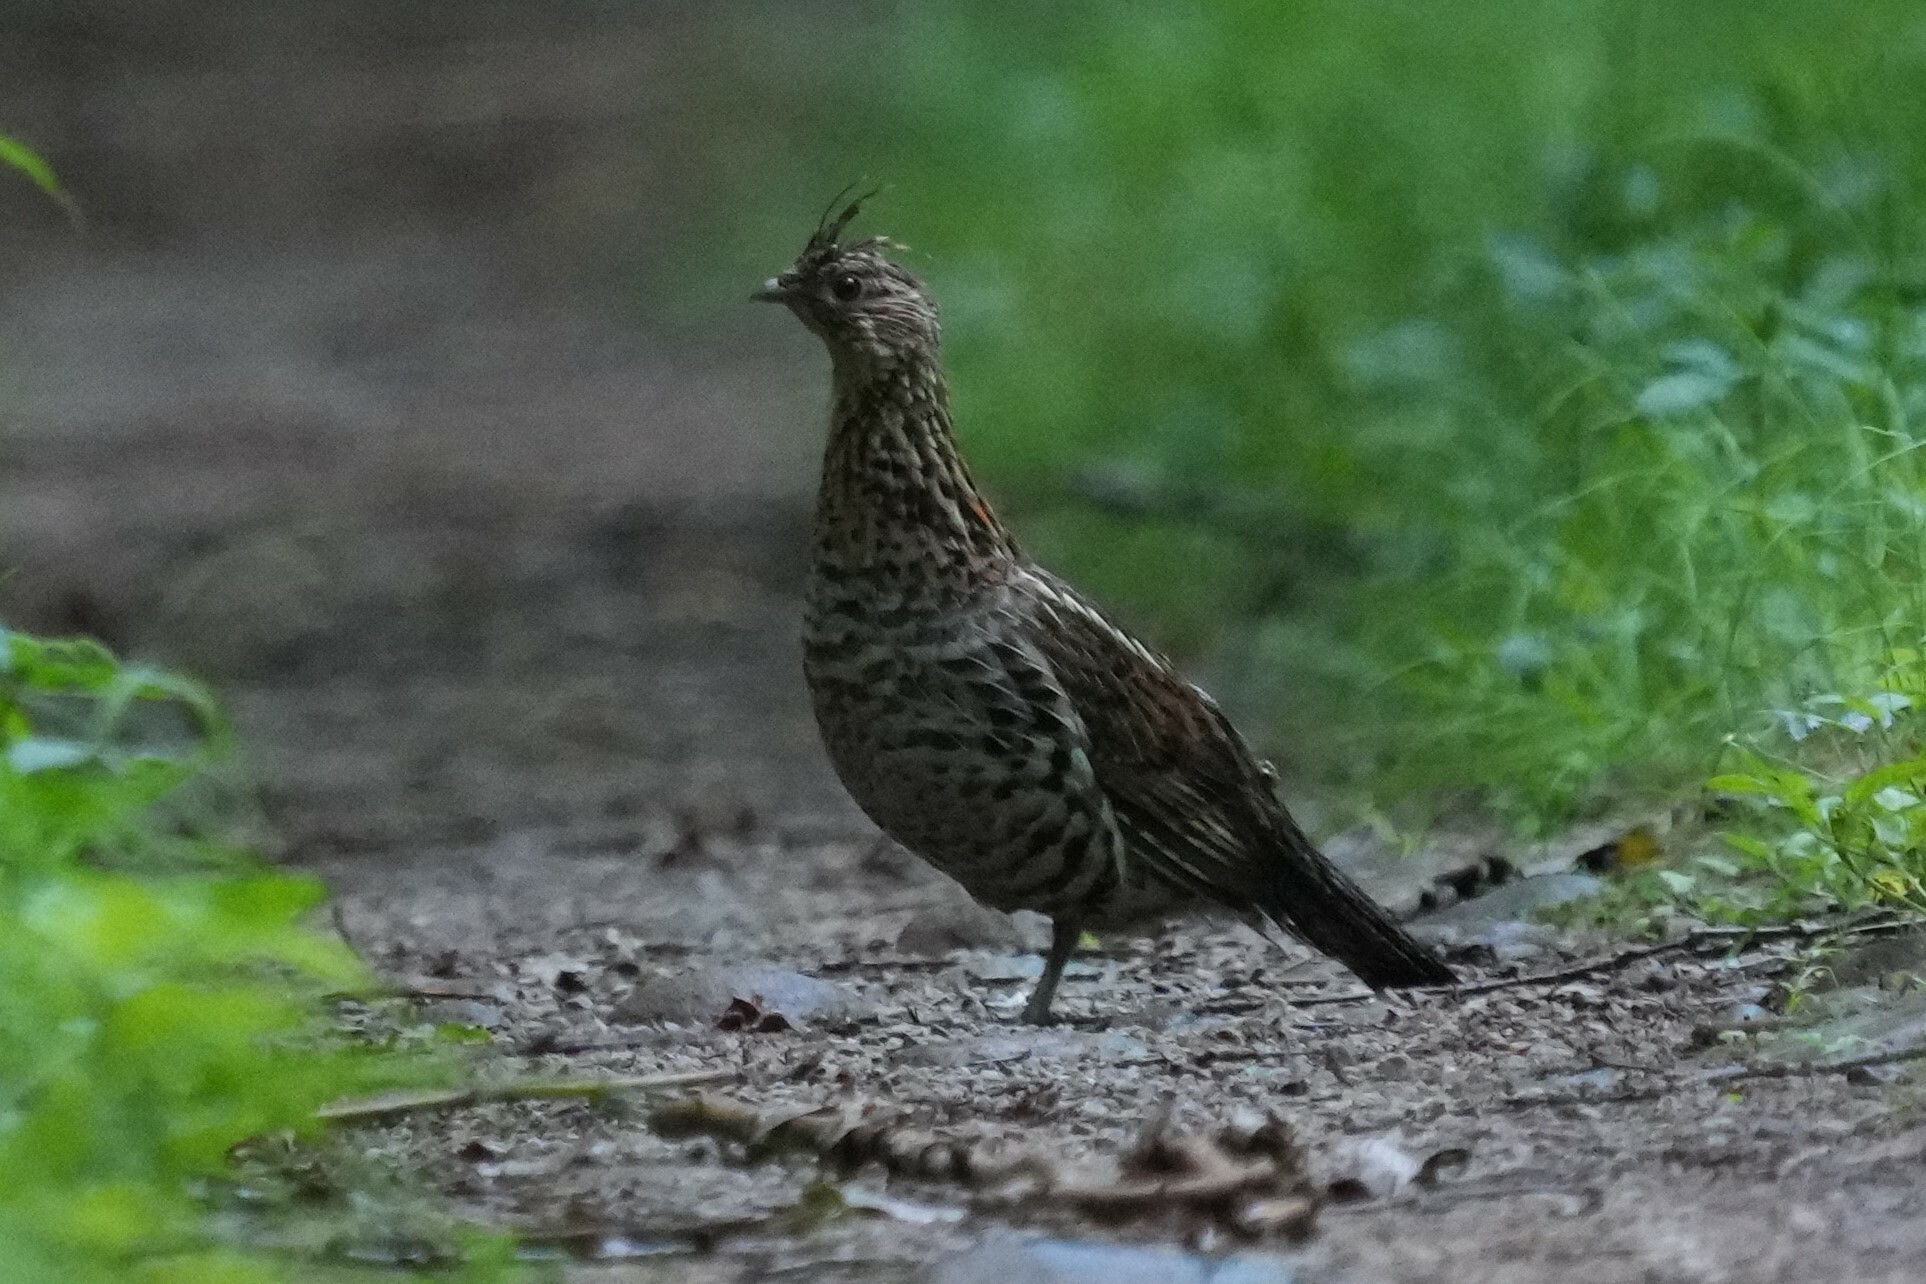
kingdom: Animalia
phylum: Chordata
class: Aves
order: Galliformes
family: Phasianidae
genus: Bonasa
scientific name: Bonasa umbellus
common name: Ruffed grouse
